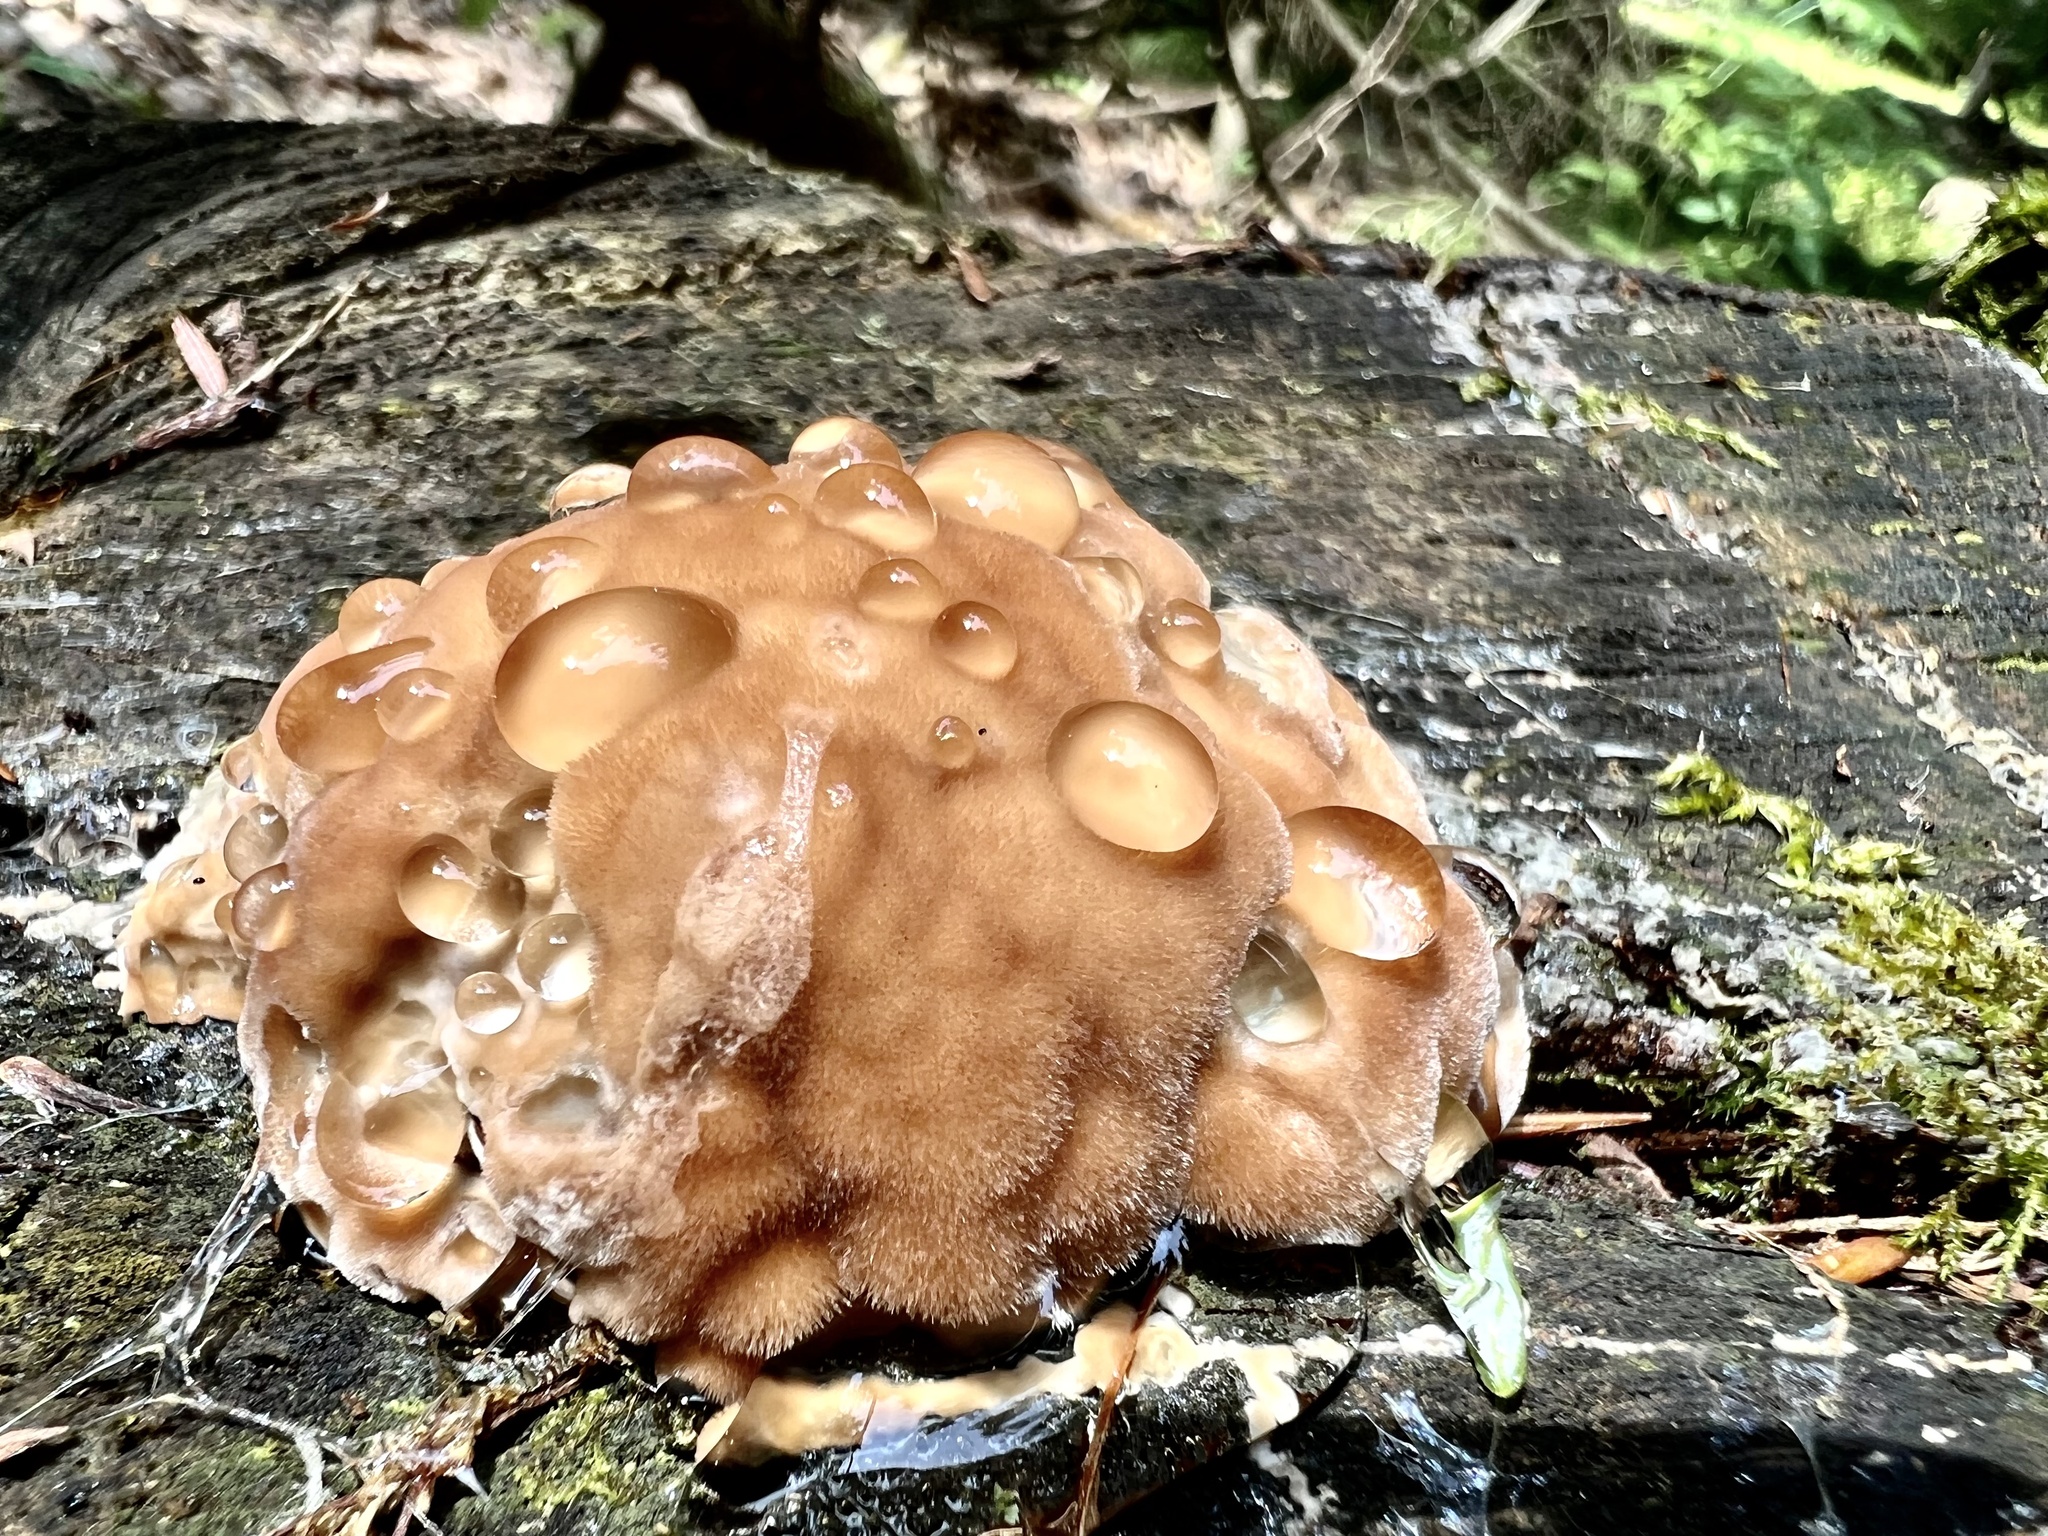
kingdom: Fungi
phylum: Basidiomycota
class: Agaricomycetes
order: Polyporales
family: Fomitopsidaceae
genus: Niveoporofomes
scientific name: Niveoporofomes spraguei
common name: Green cheese polypore
